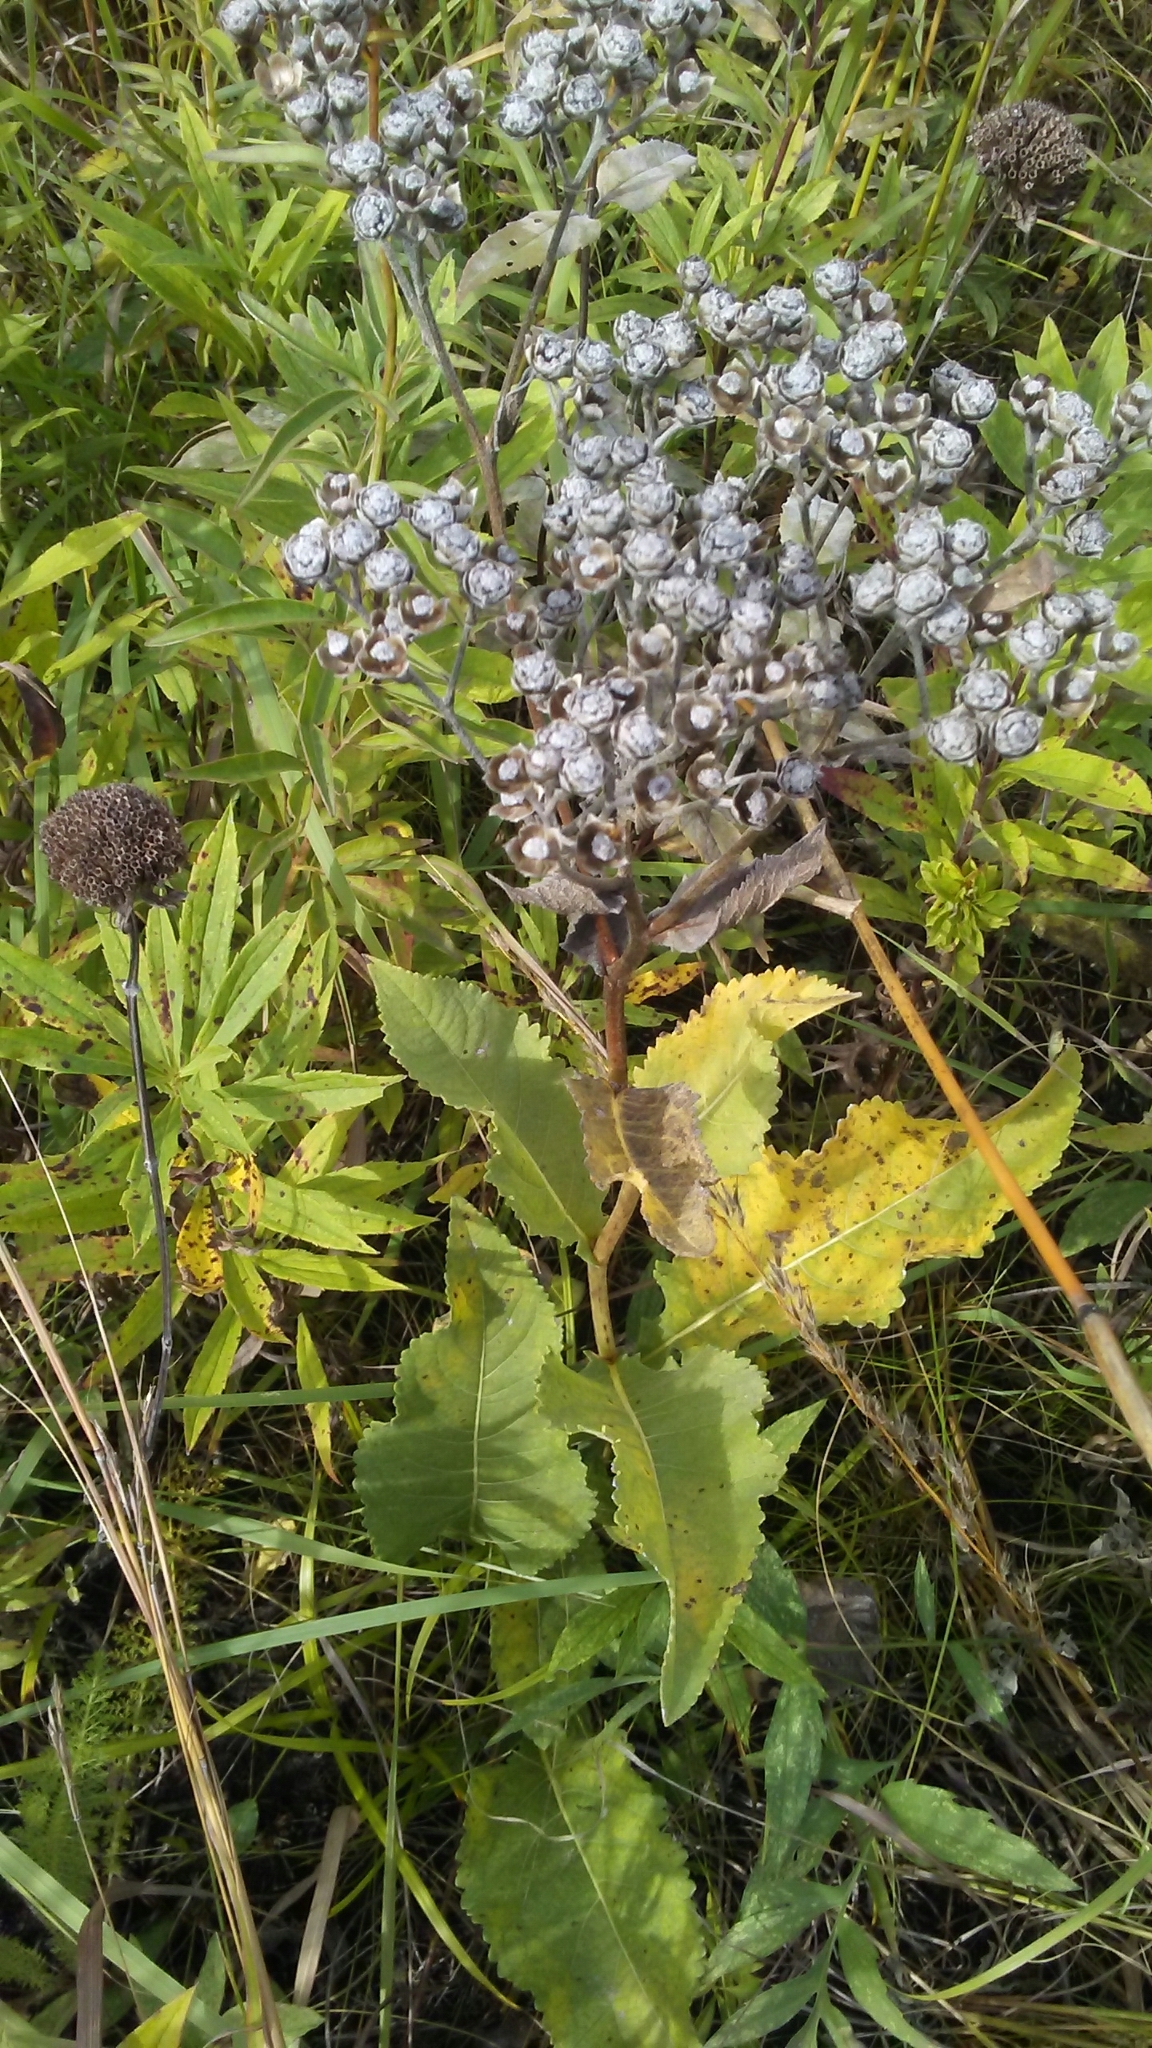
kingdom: Plantae
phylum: Tracheophyta
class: Magnoliopsida
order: Asterales
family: Asteraceae
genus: Parthenium
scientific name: Parthenium integrifolium
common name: American feverfew
